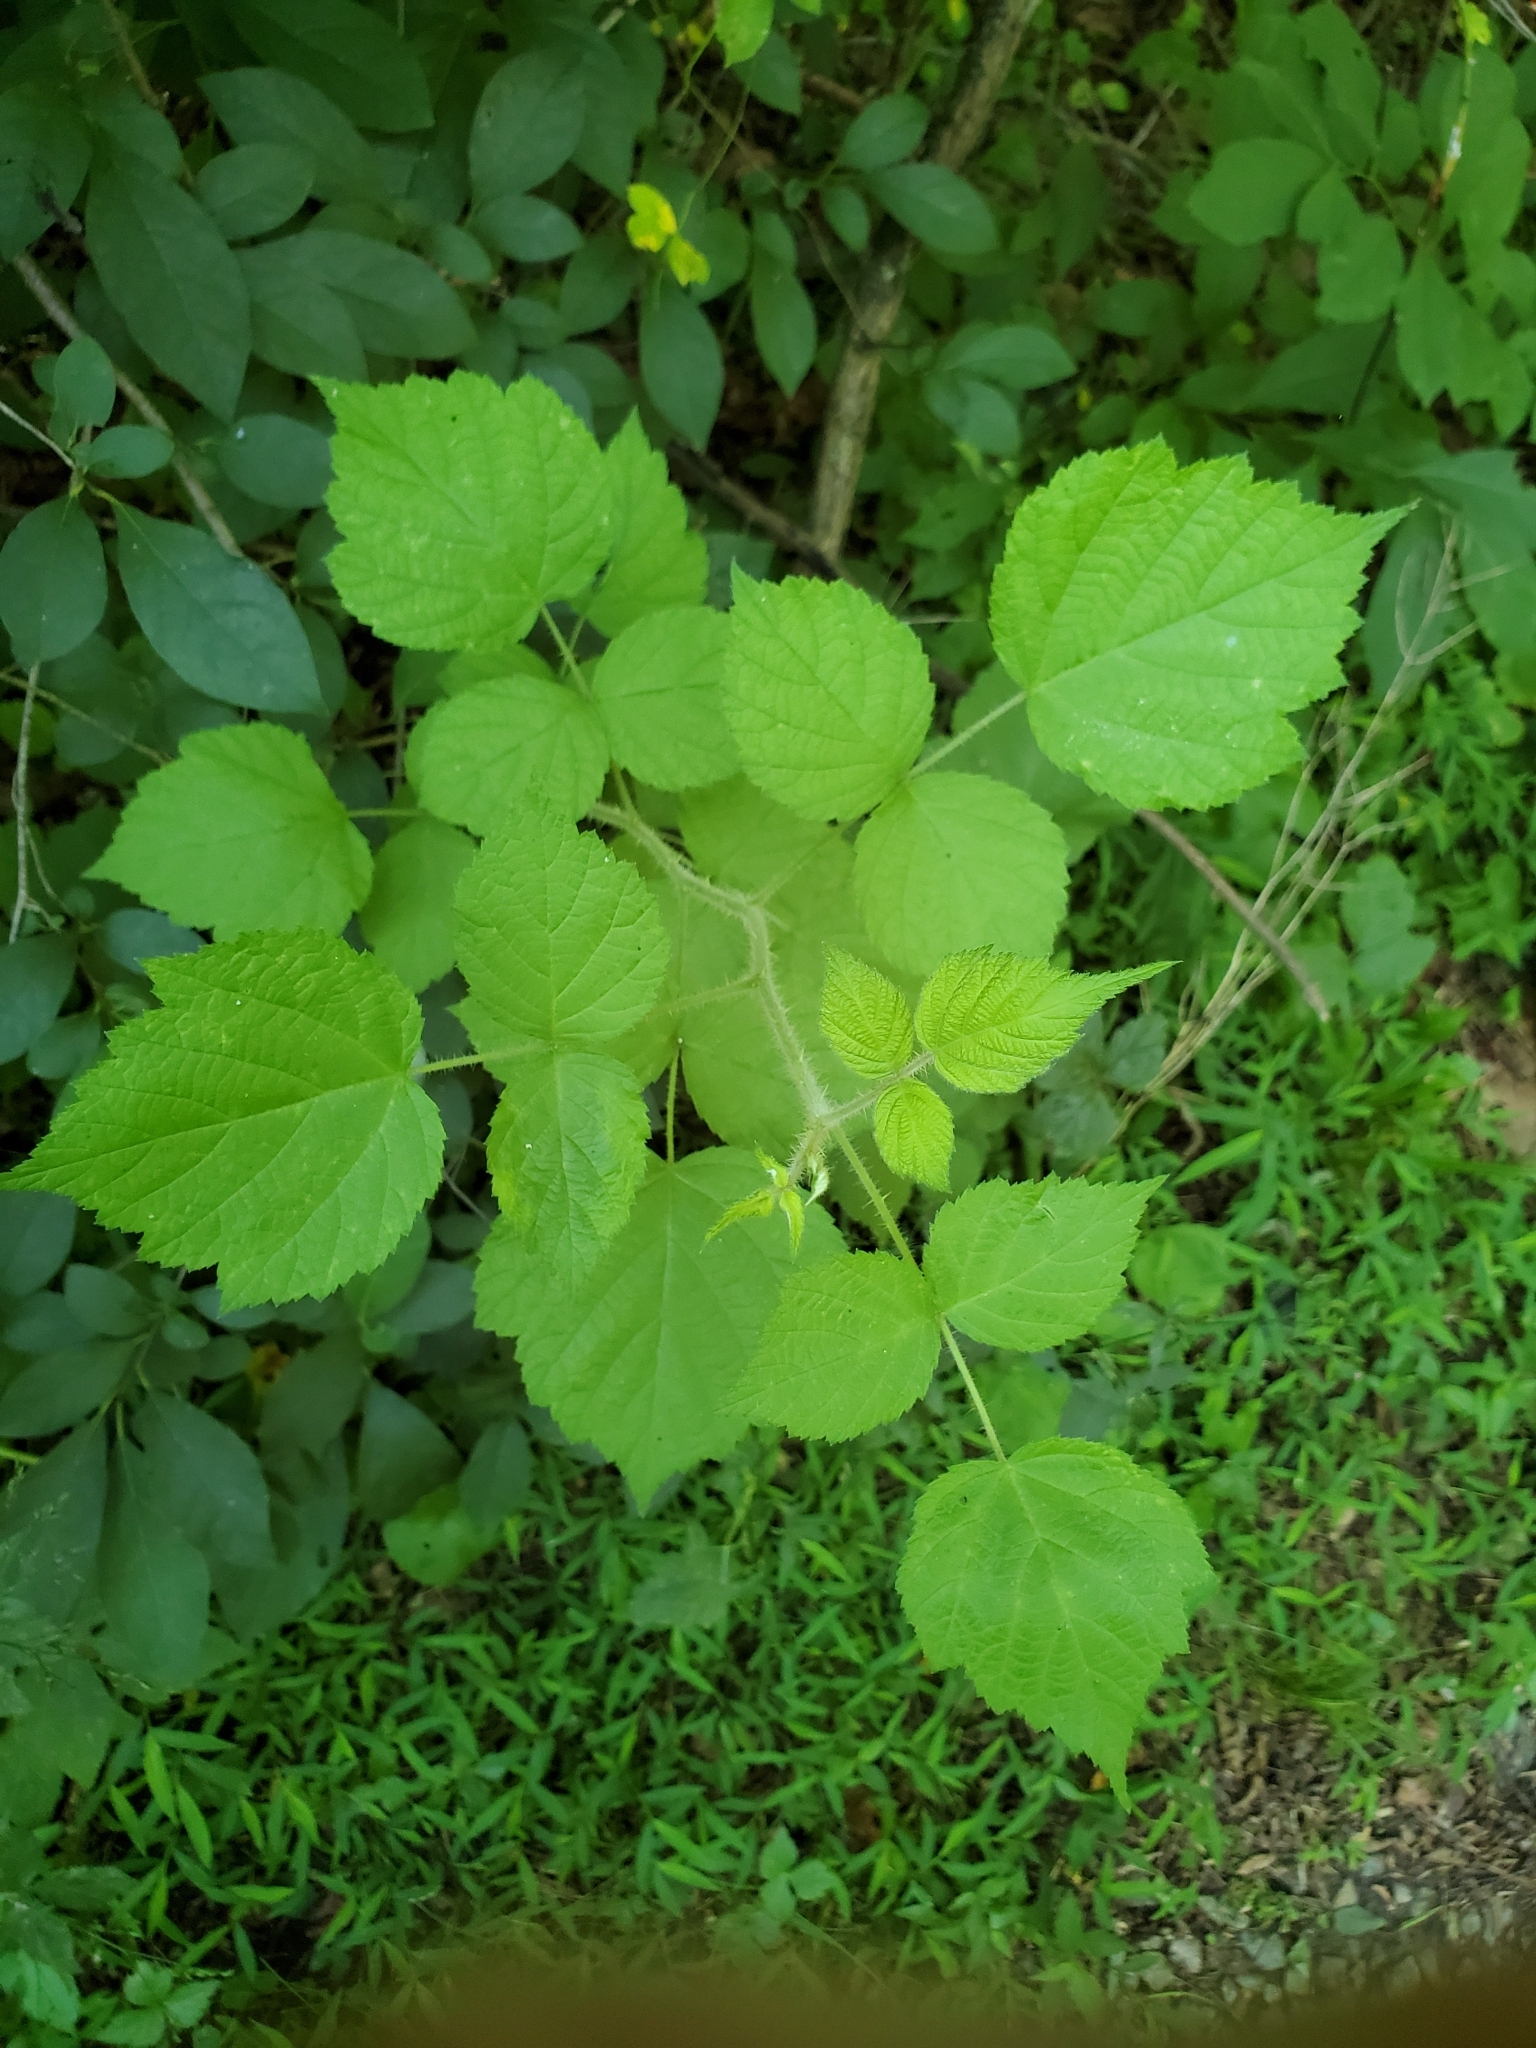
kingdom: Plantae
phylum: Tracheophyta
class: Magnoliopsida
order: Rosales
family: Rosaceae
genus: Rubus
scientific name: Rubus phoenicolasius
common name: Japanese wineberry
